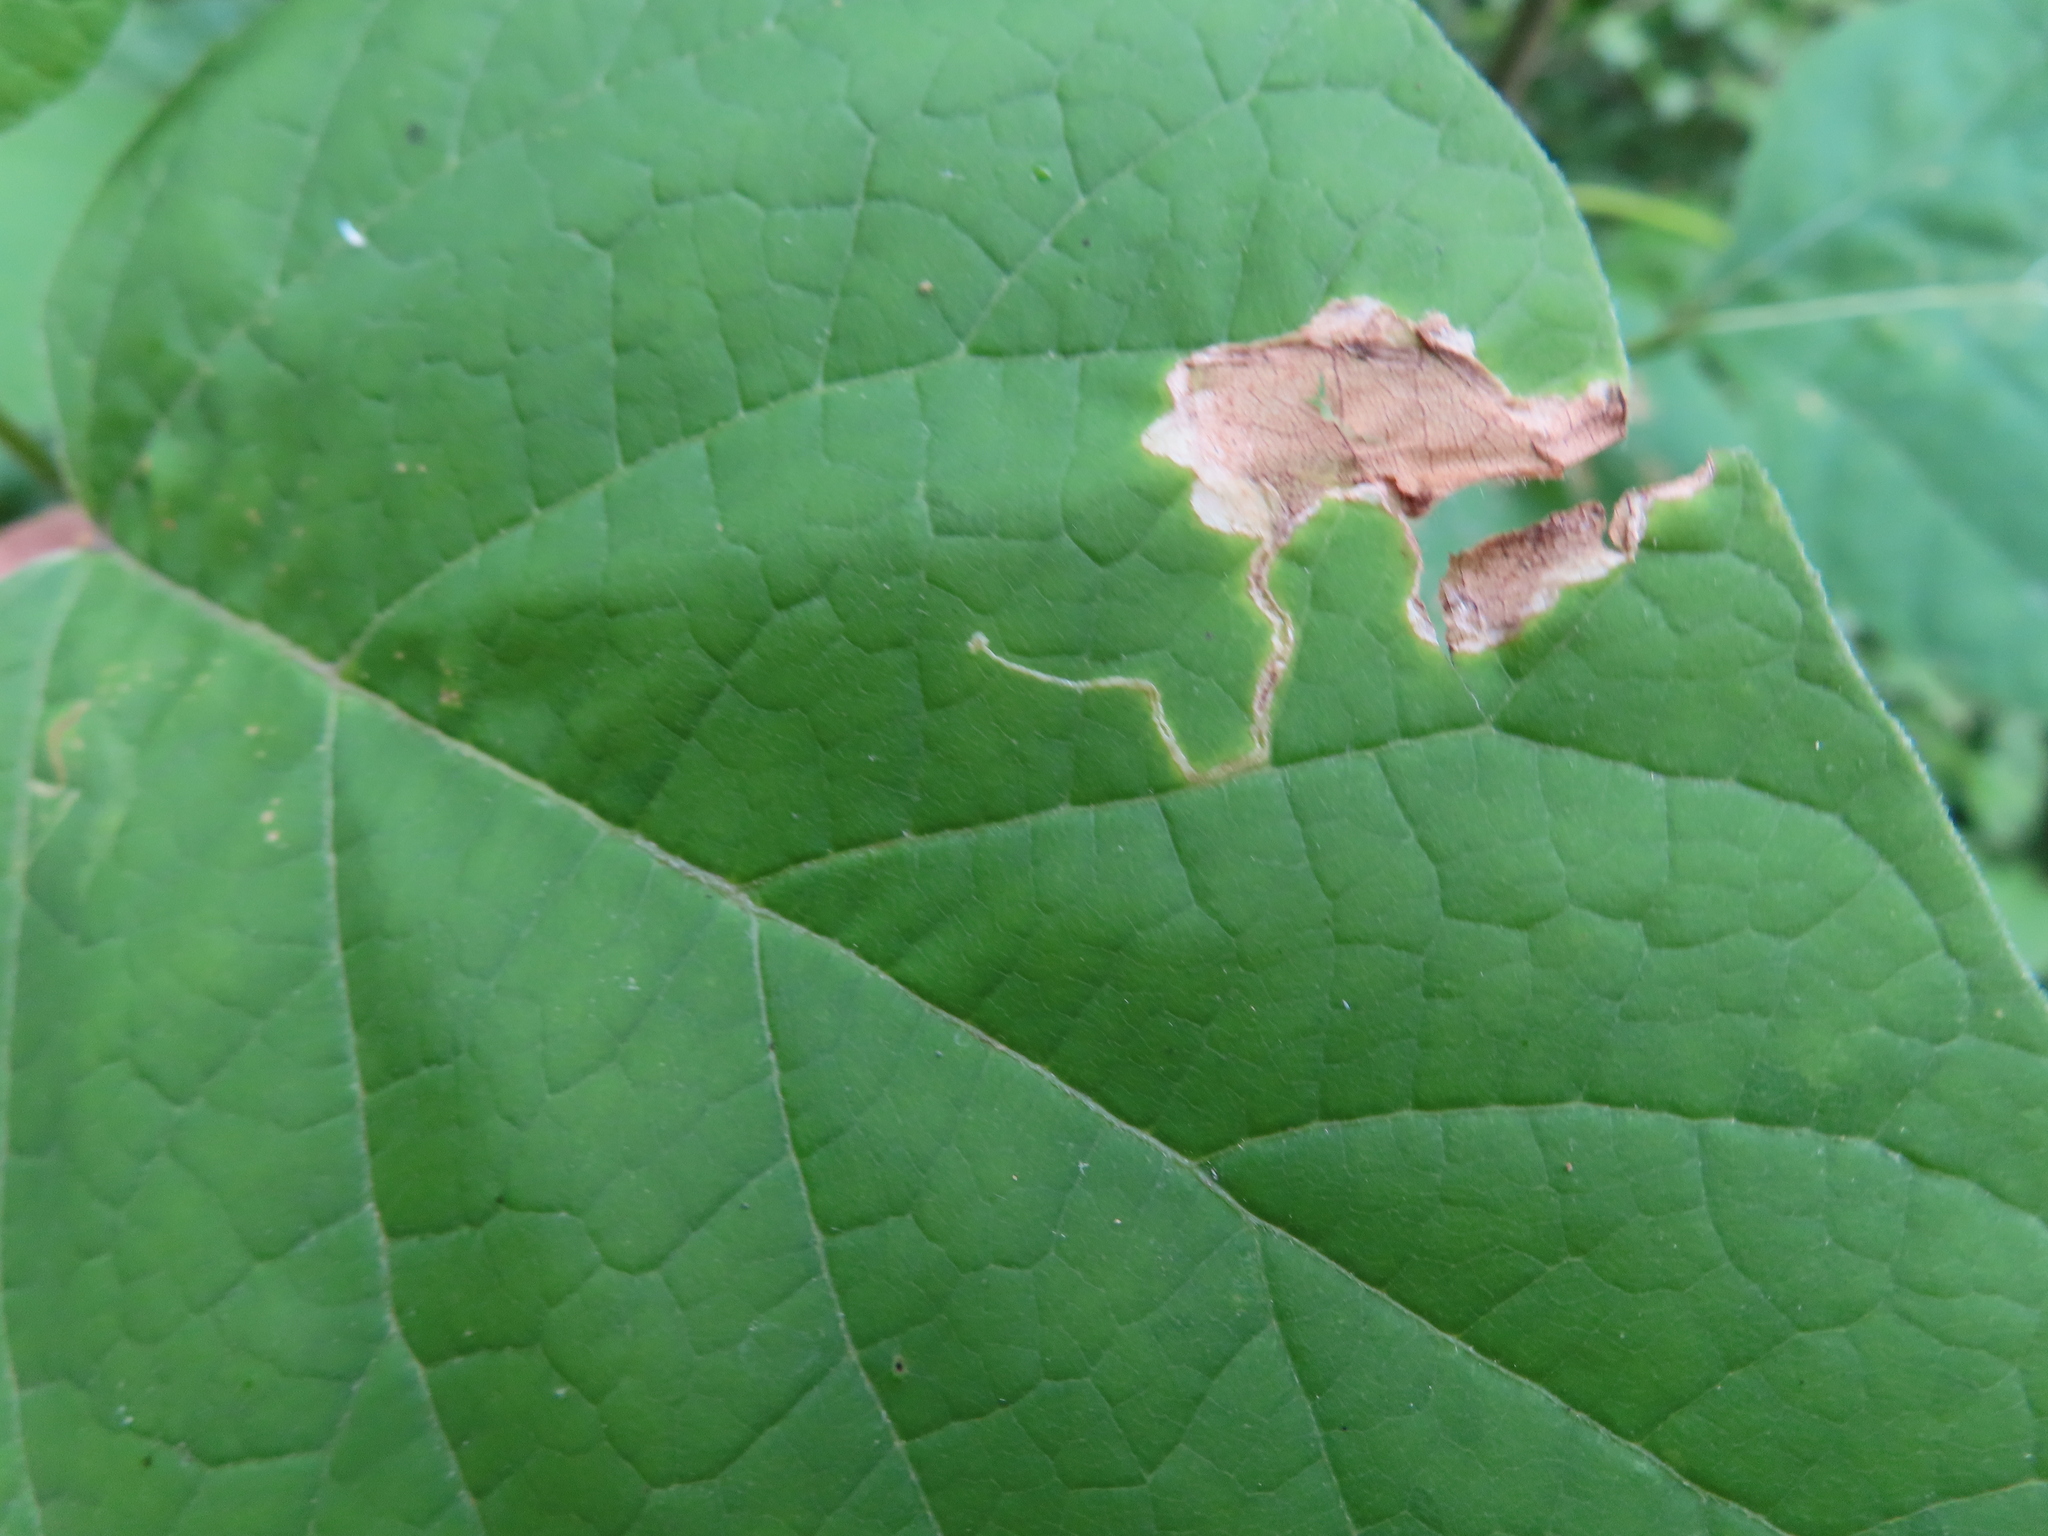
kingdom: Animalia
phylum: Arthropoda
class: Insecta
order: Diptera
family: Agromyzidae
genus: Amauromyza
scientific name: Amauromyza pleuralis
